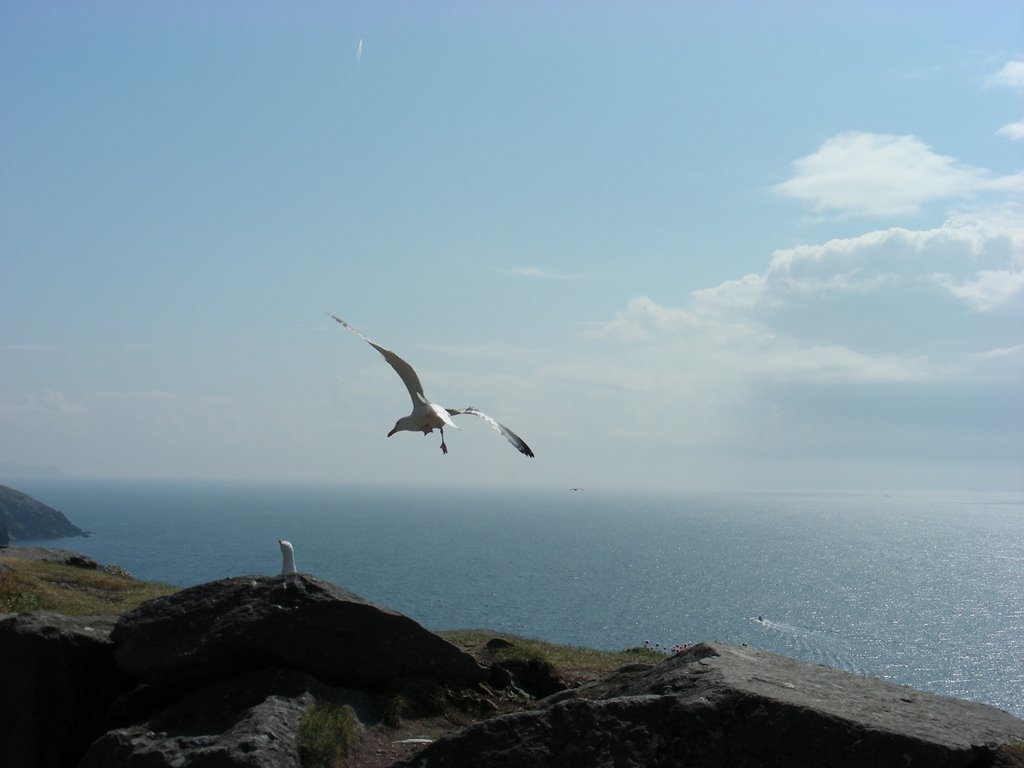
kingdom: Animalia
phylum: Chordata
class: Aves
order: Charadriiformes
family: Laridae
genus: Larus
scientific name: Larus argentatus
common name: Herring gull
